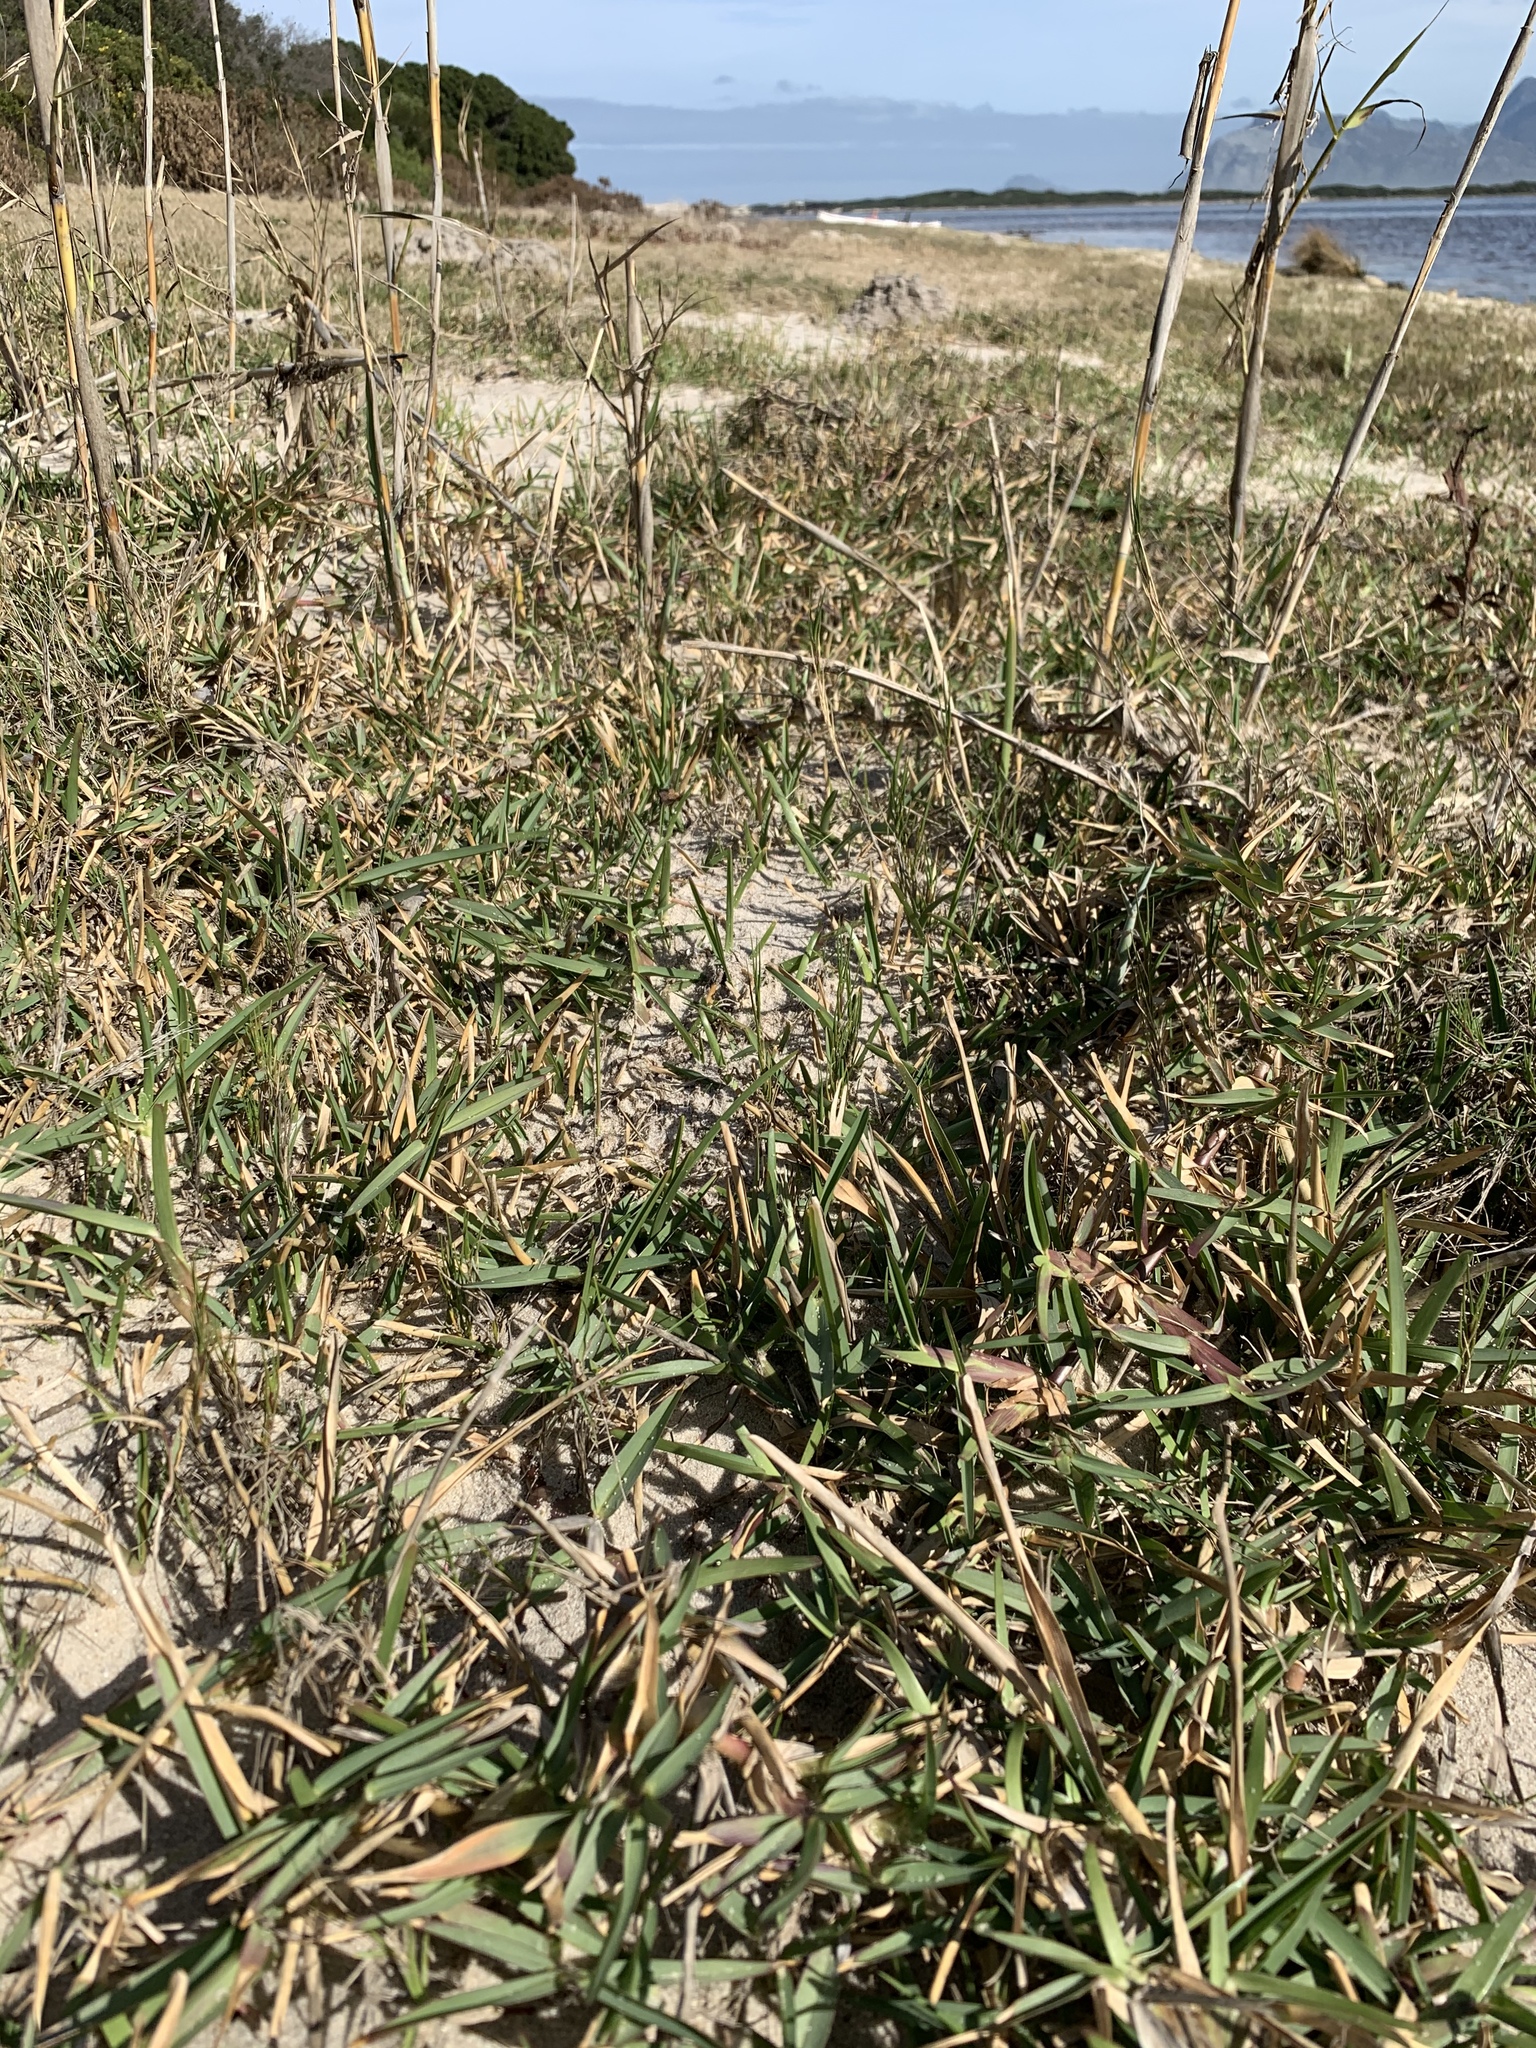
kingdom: Plantae
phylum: Tracheophyta
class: Liliopsida
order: Poales
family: Poaceae
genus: Stenotaphrum
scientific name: Stenotaphrum secundatum
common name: St. augustine grass
